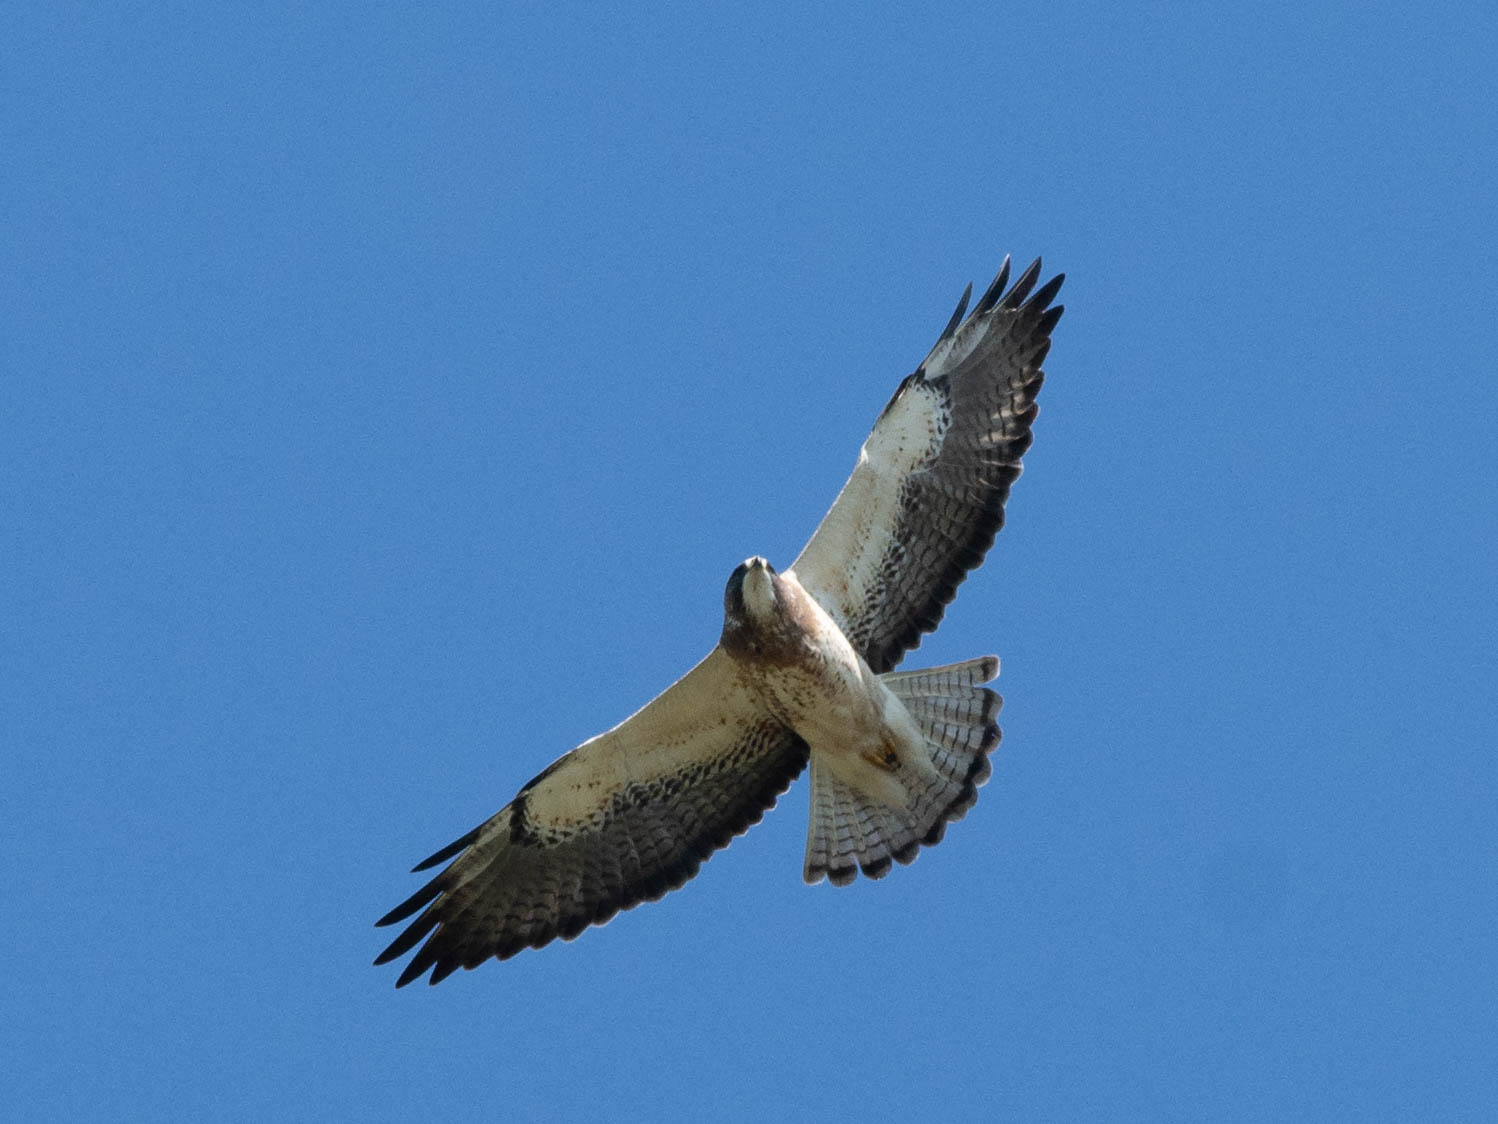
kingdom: Animalia
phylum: Chordata
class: Aves
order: Accipitriformes
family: Accipitridae
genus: Buteo
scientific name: Buteo swainsoni
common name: Swainson's hawk
